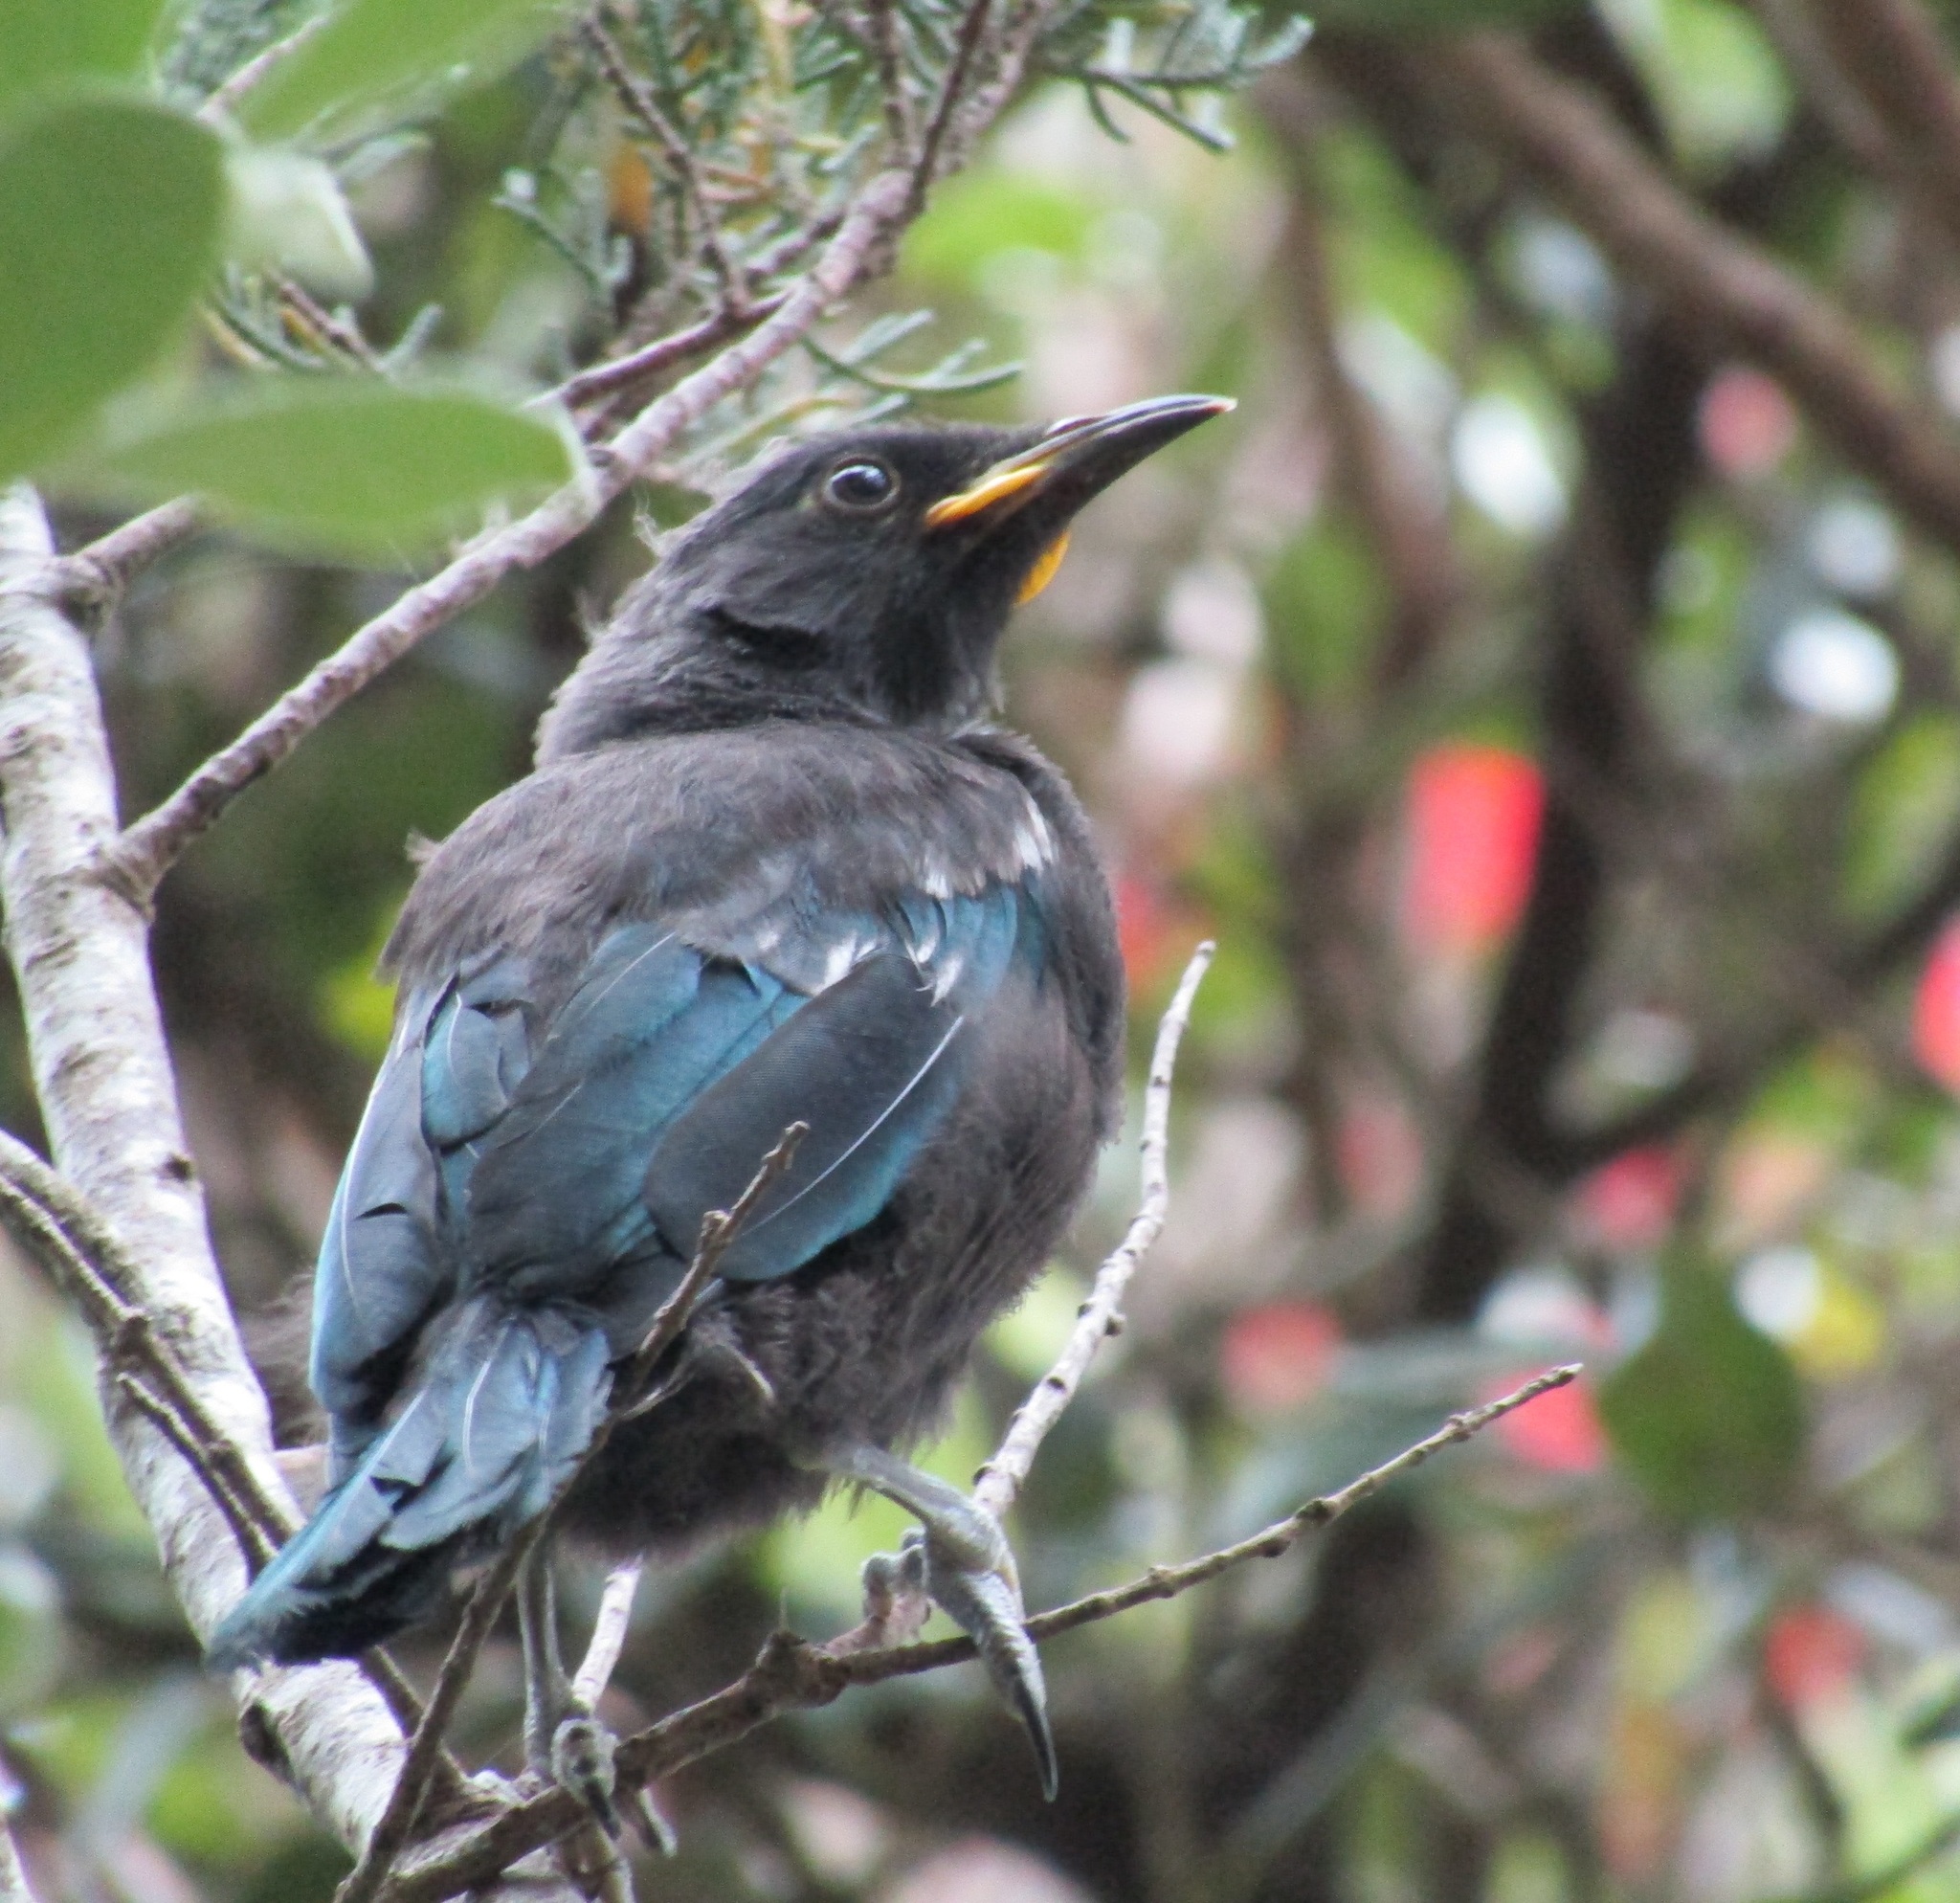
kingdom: Animalia
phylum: Chordata
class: Aves
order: Passeriformes
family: Meliphagidae
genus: Prosthemadera
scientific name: Prosthemadera novaeseelandiae
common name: Tui
